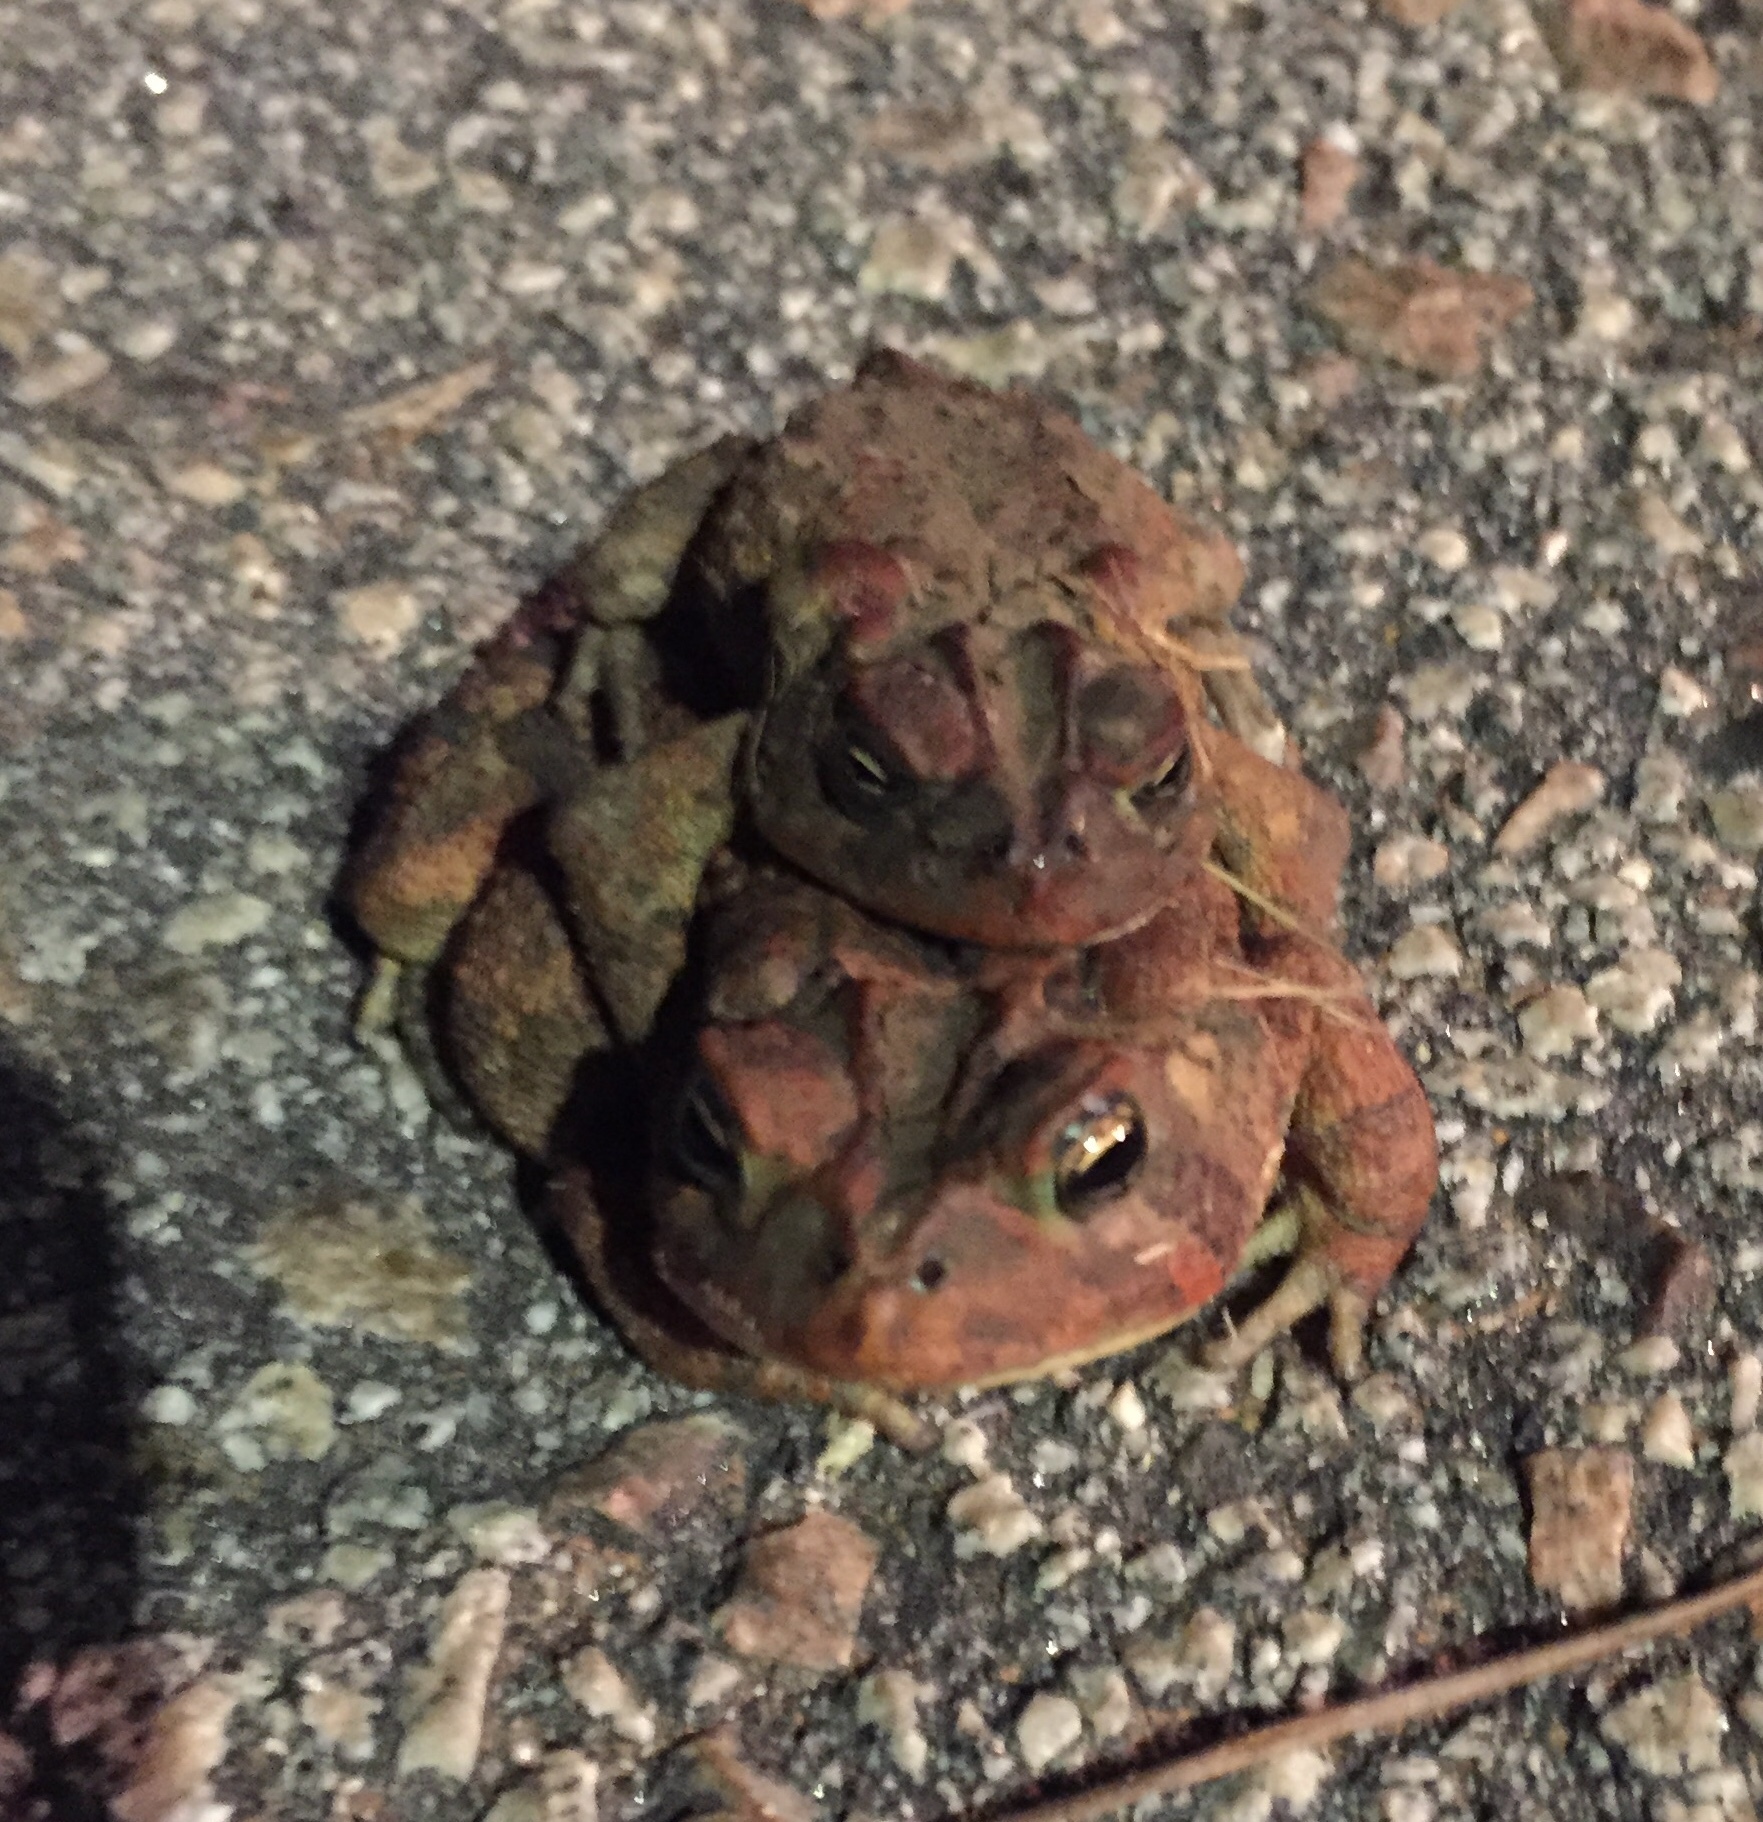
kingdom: Animalia
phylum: Chordata
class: Amphibia
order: Anura
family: Bufonidae
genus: Anaxyrus
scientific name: Anaxyrus terrestris
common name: Southern toad
